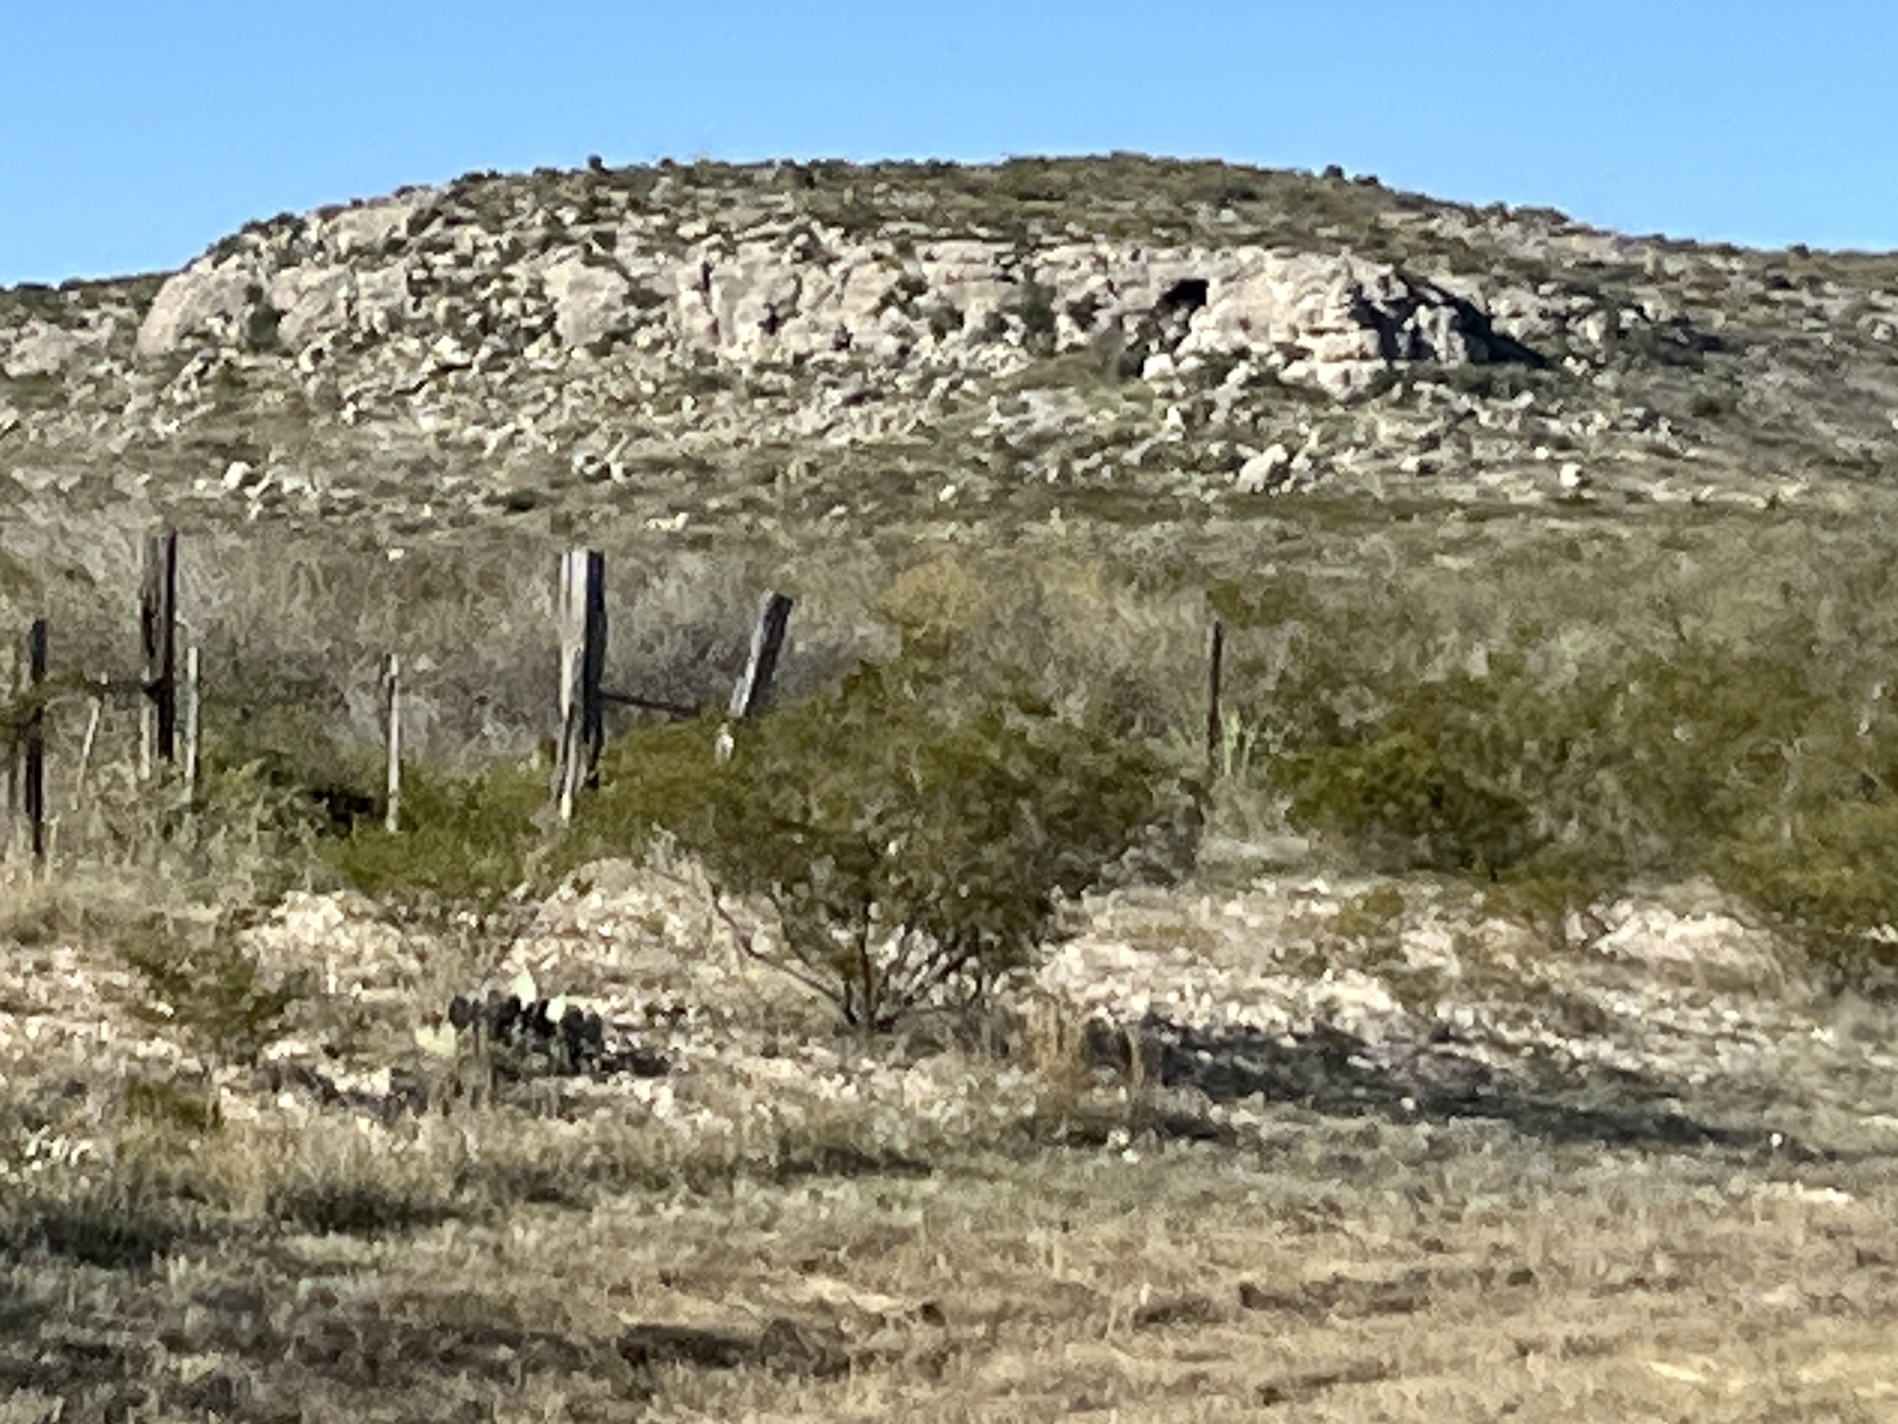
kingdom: Plantae
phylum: Tracheophyta
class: Magnoliopsida
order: Zygophyllales
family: Zygophyllaceae
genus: Larrea
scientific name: Larrea tridentata
